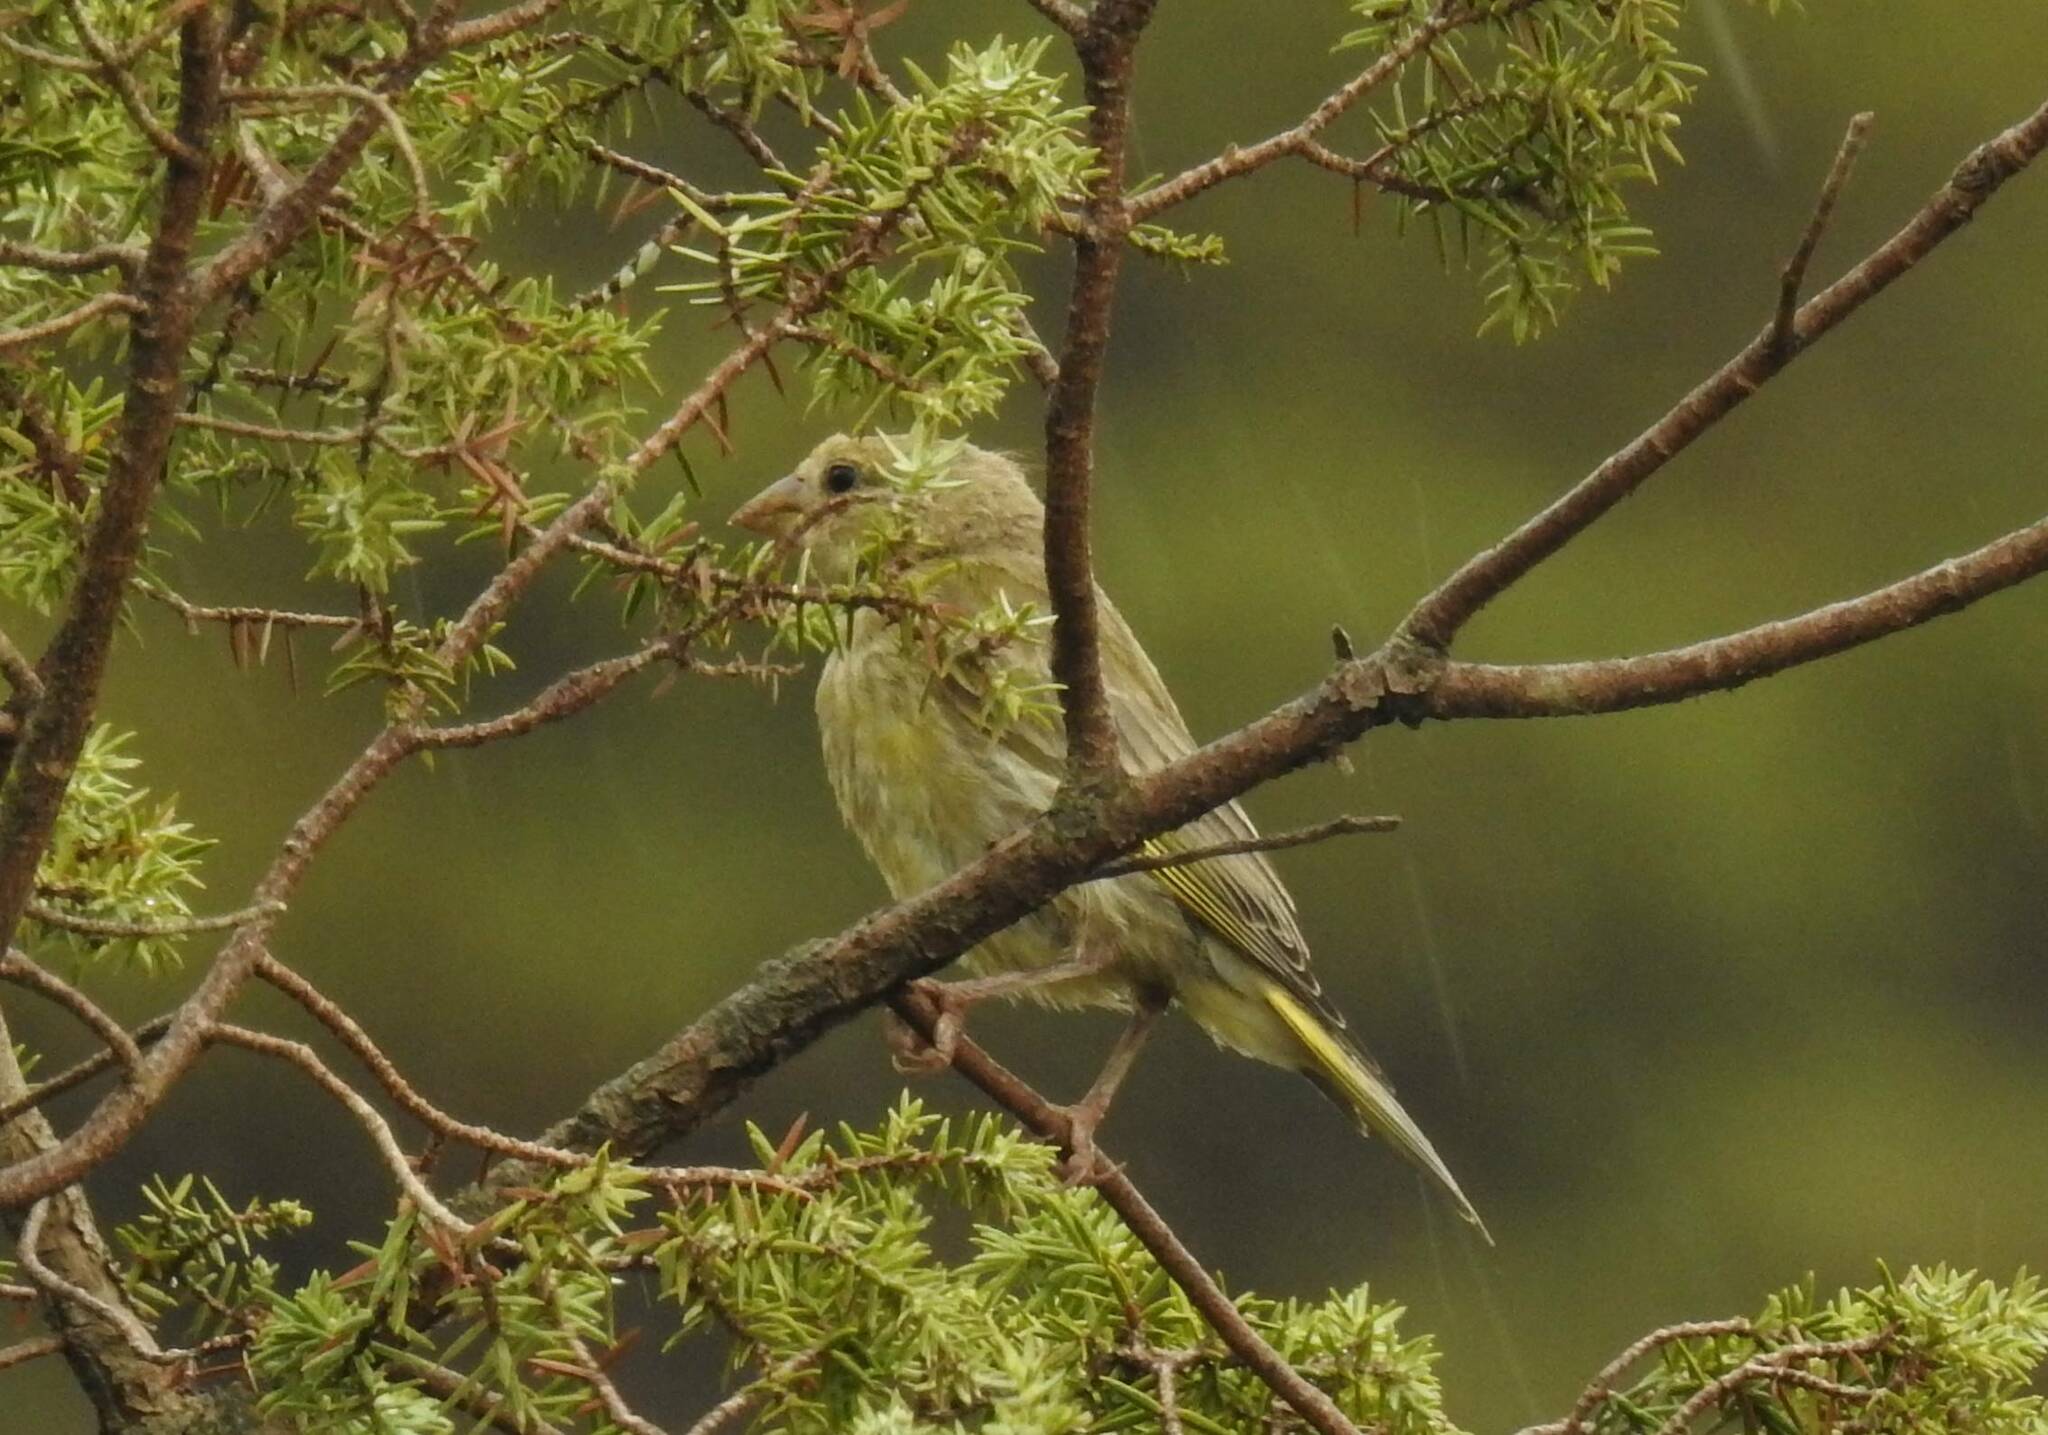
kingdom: Plantae
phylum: Tracheophyta
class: Liliopsida
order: Poales
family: Poaceae
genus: Chloris
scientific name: Chloris chloris
